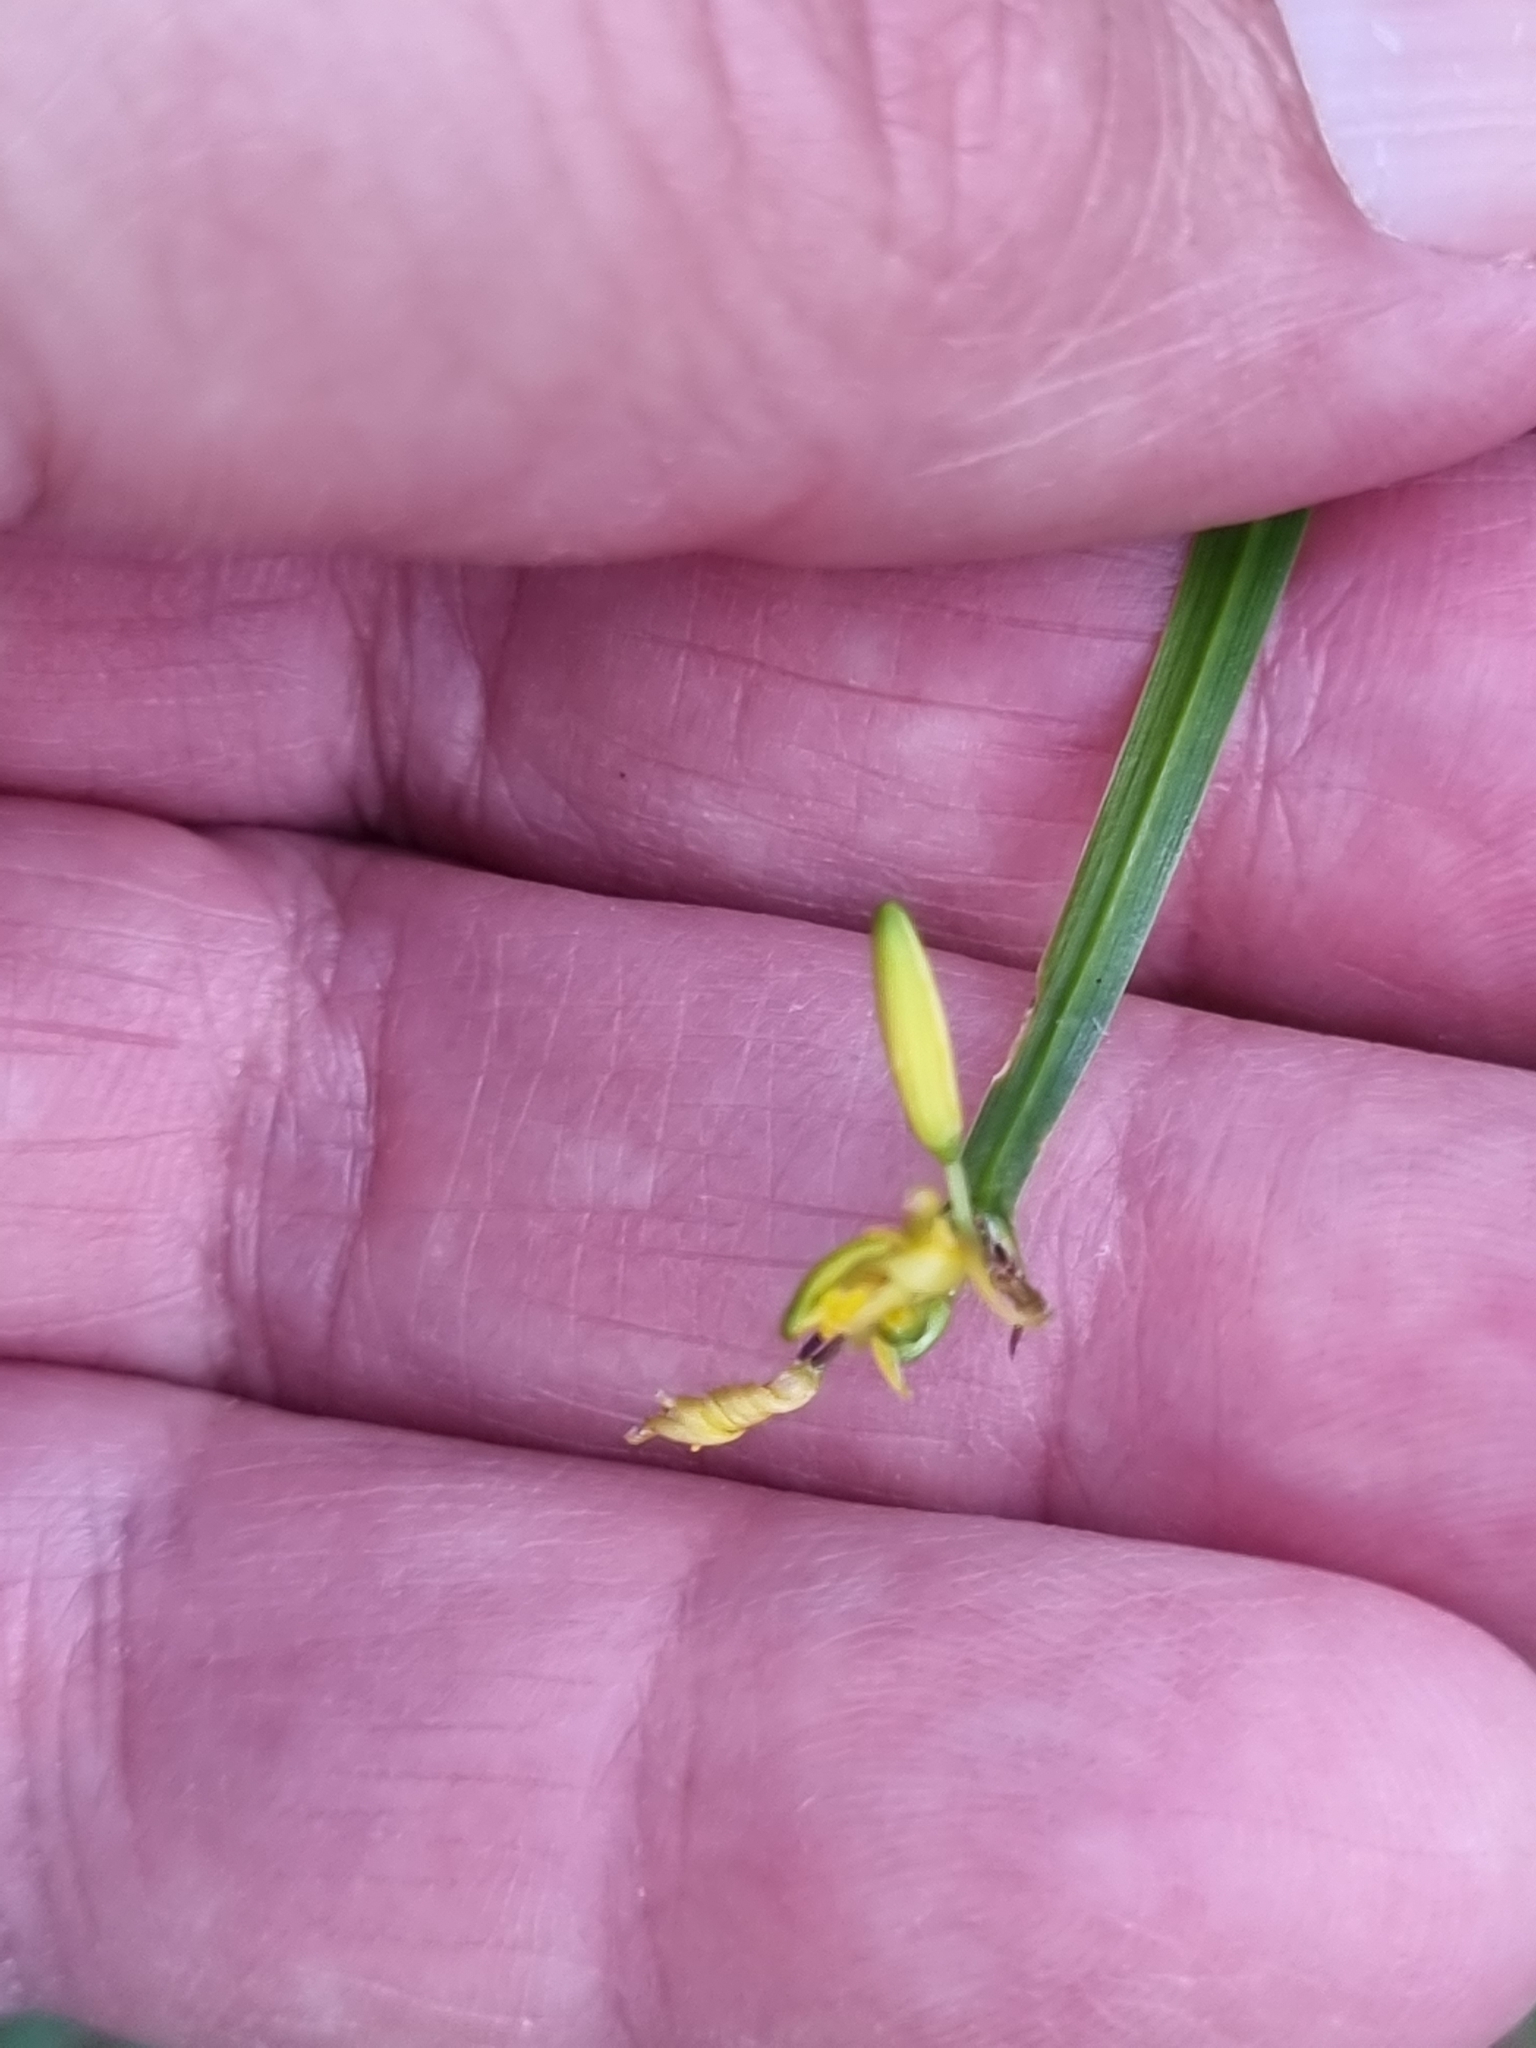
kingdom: Plantae
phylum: Tracheophyta
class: Liliopsida
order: Asparagales
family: Asphodelaceae
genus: Tricoryne
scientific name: Tricoryne anceps
